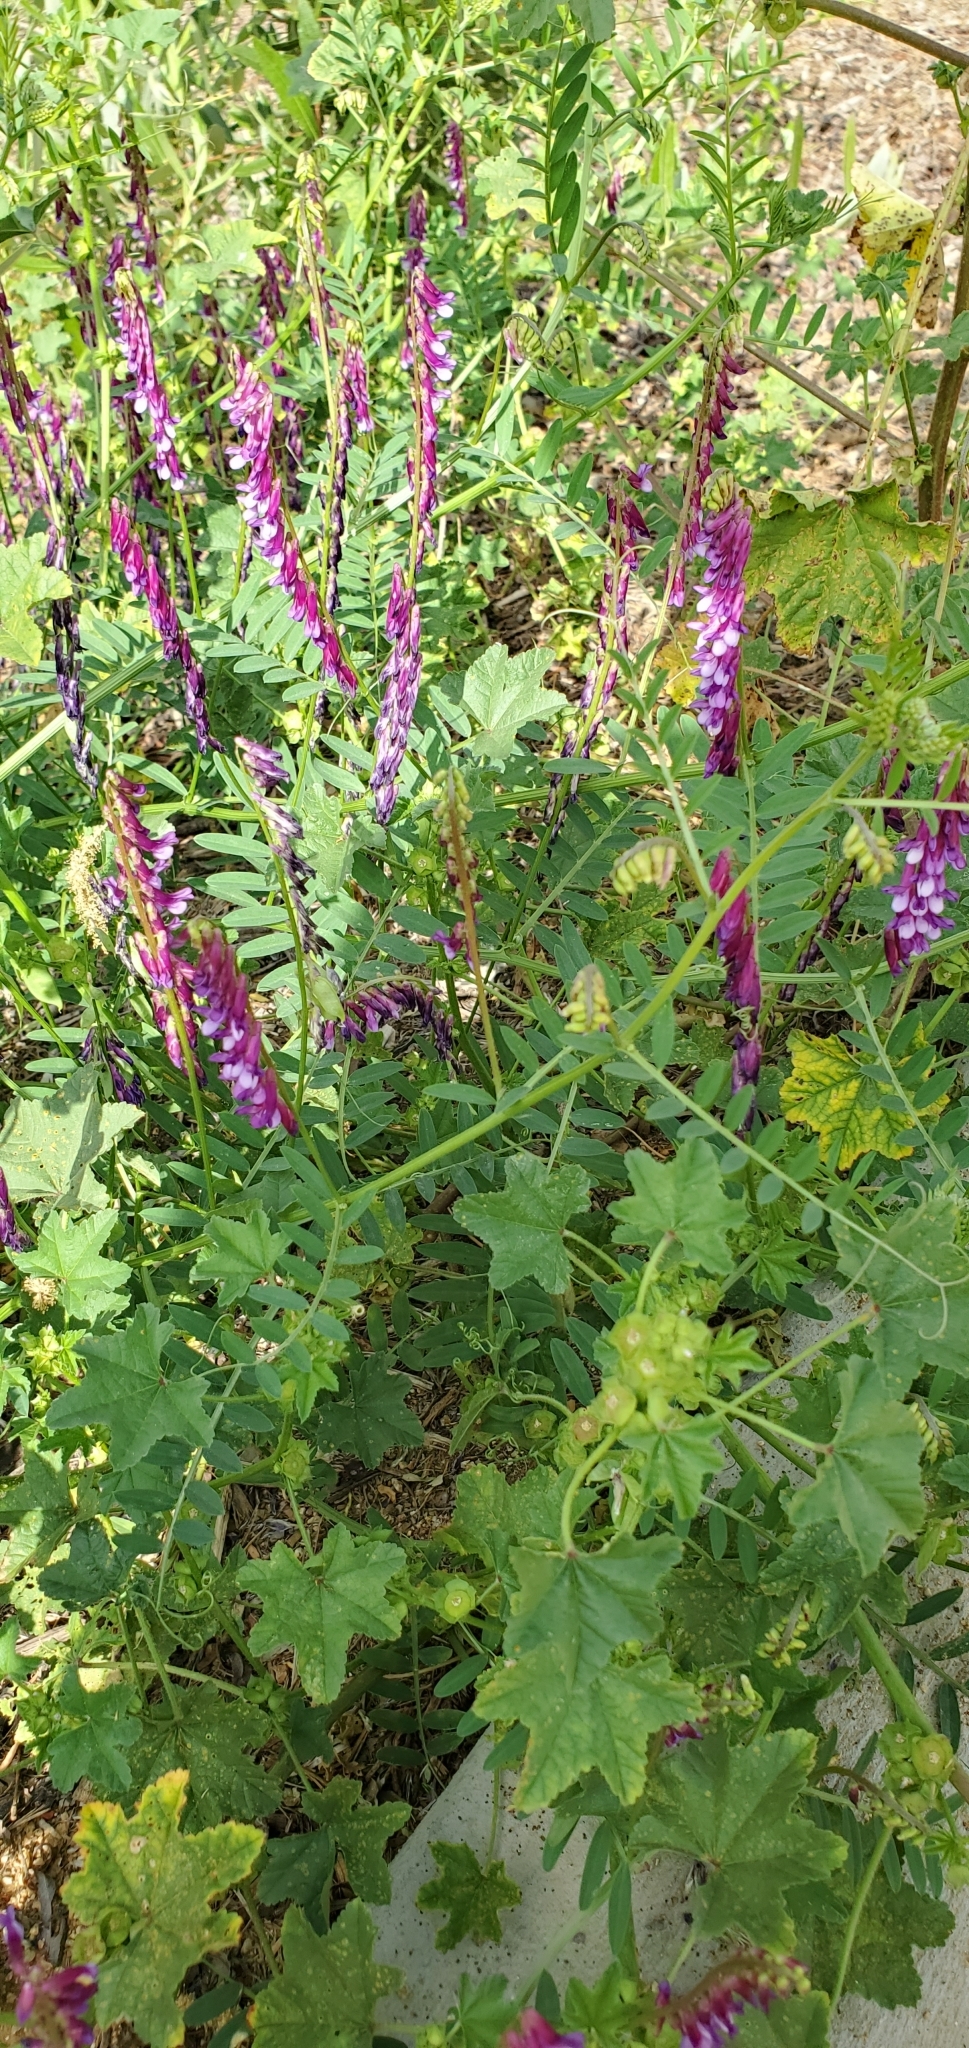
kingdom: Plantae
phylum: Tracheophyta
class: Magnoliopsida
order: Fabales
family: Fabaceae
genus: Vicia
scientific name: Vicia villosa
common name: Fodder vetch
